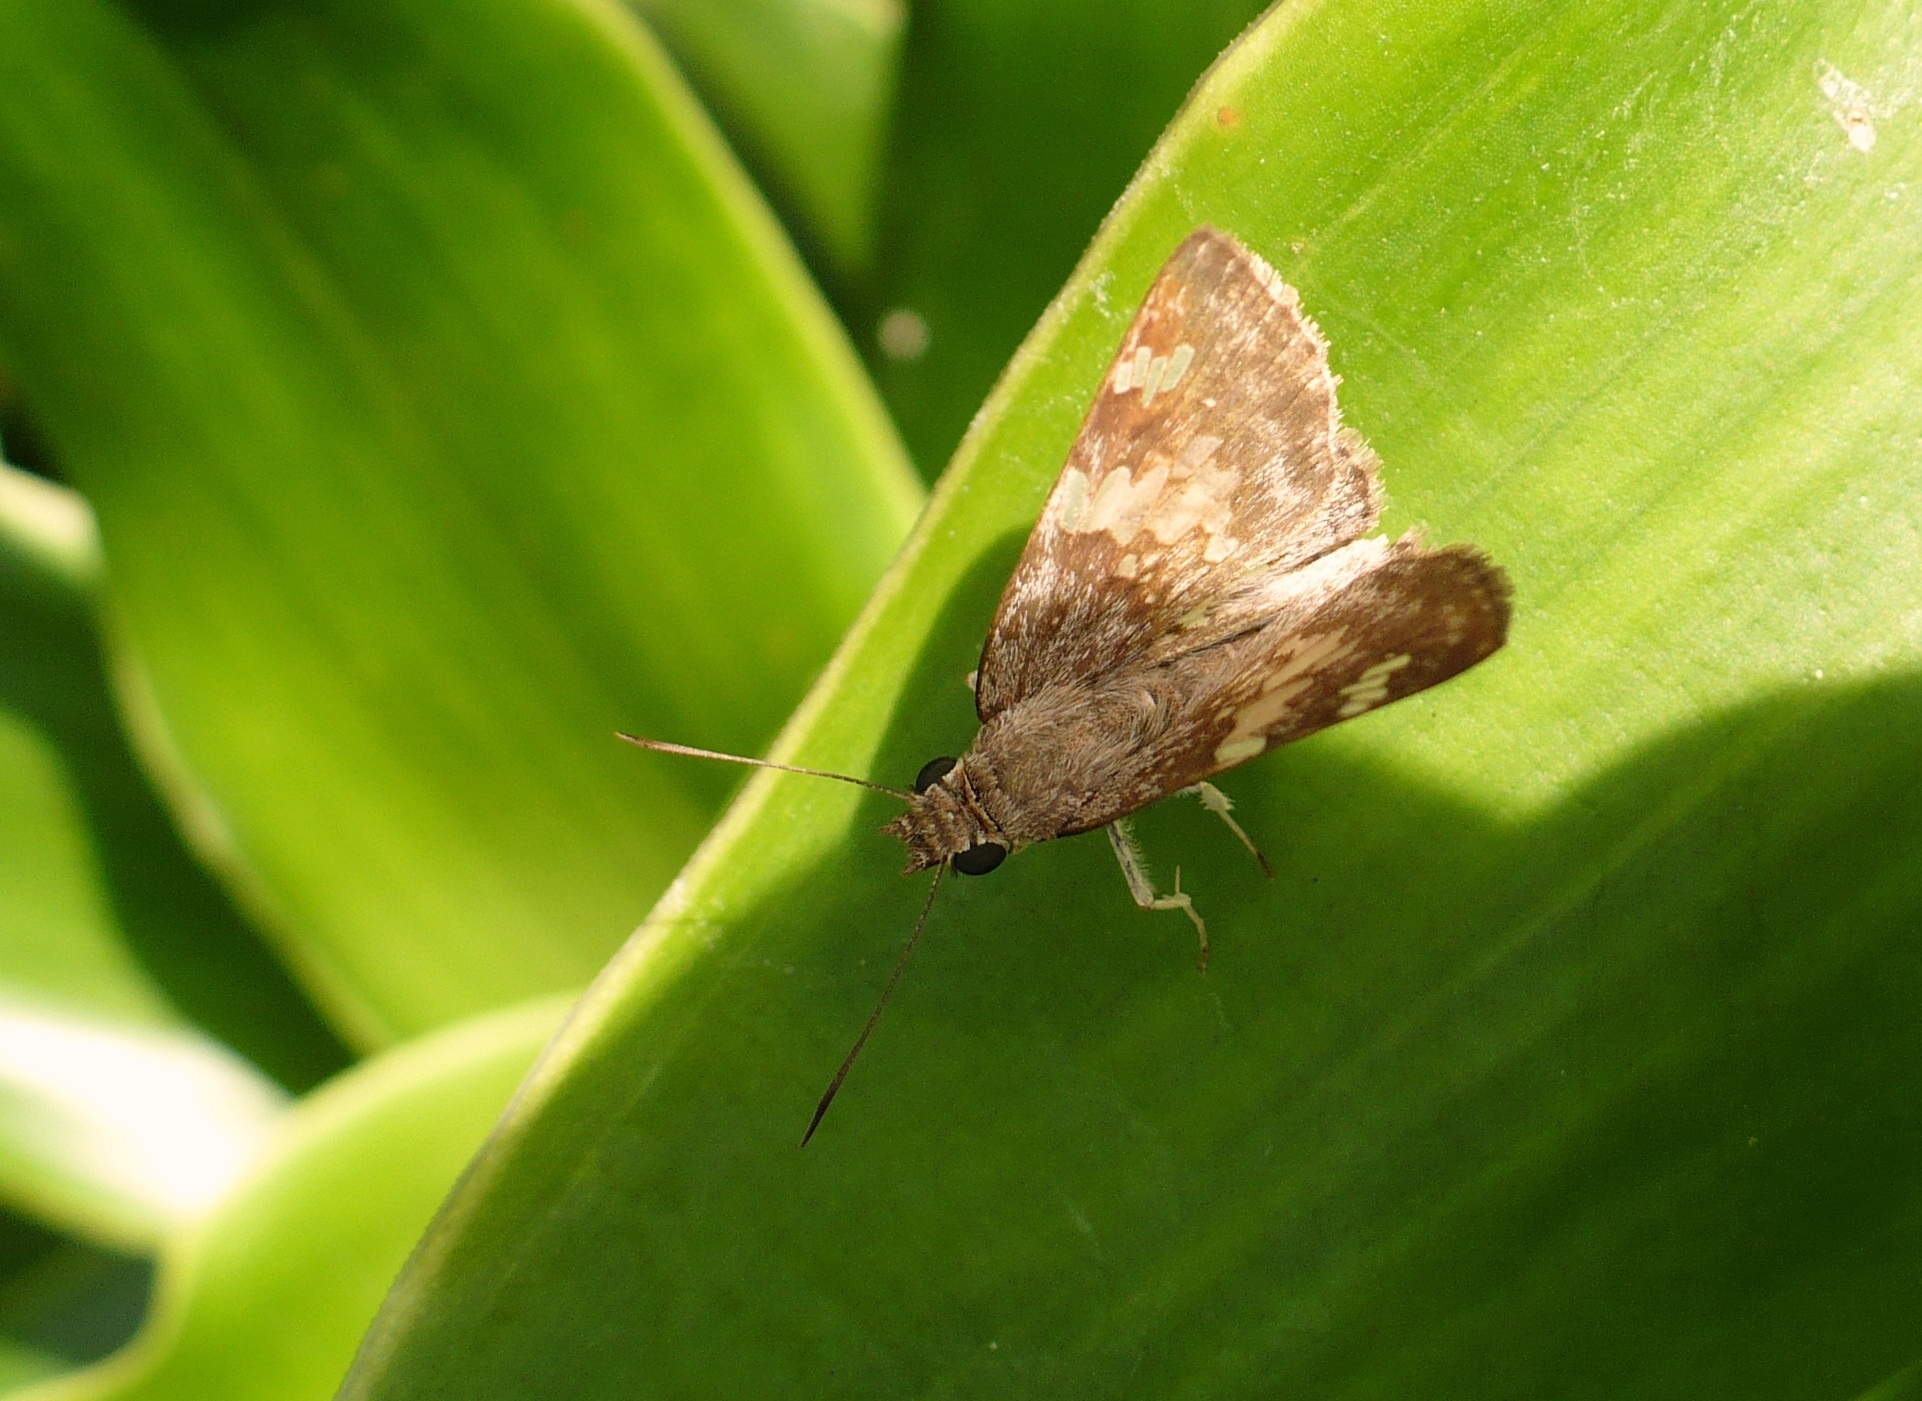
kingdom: Animalia
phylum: Arthropoda
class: Insecta
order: Lepidoptera
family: Hesperiidae
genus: Xenophanes
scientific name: Xenophanes tryxus
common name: Glassy-winged skipper
